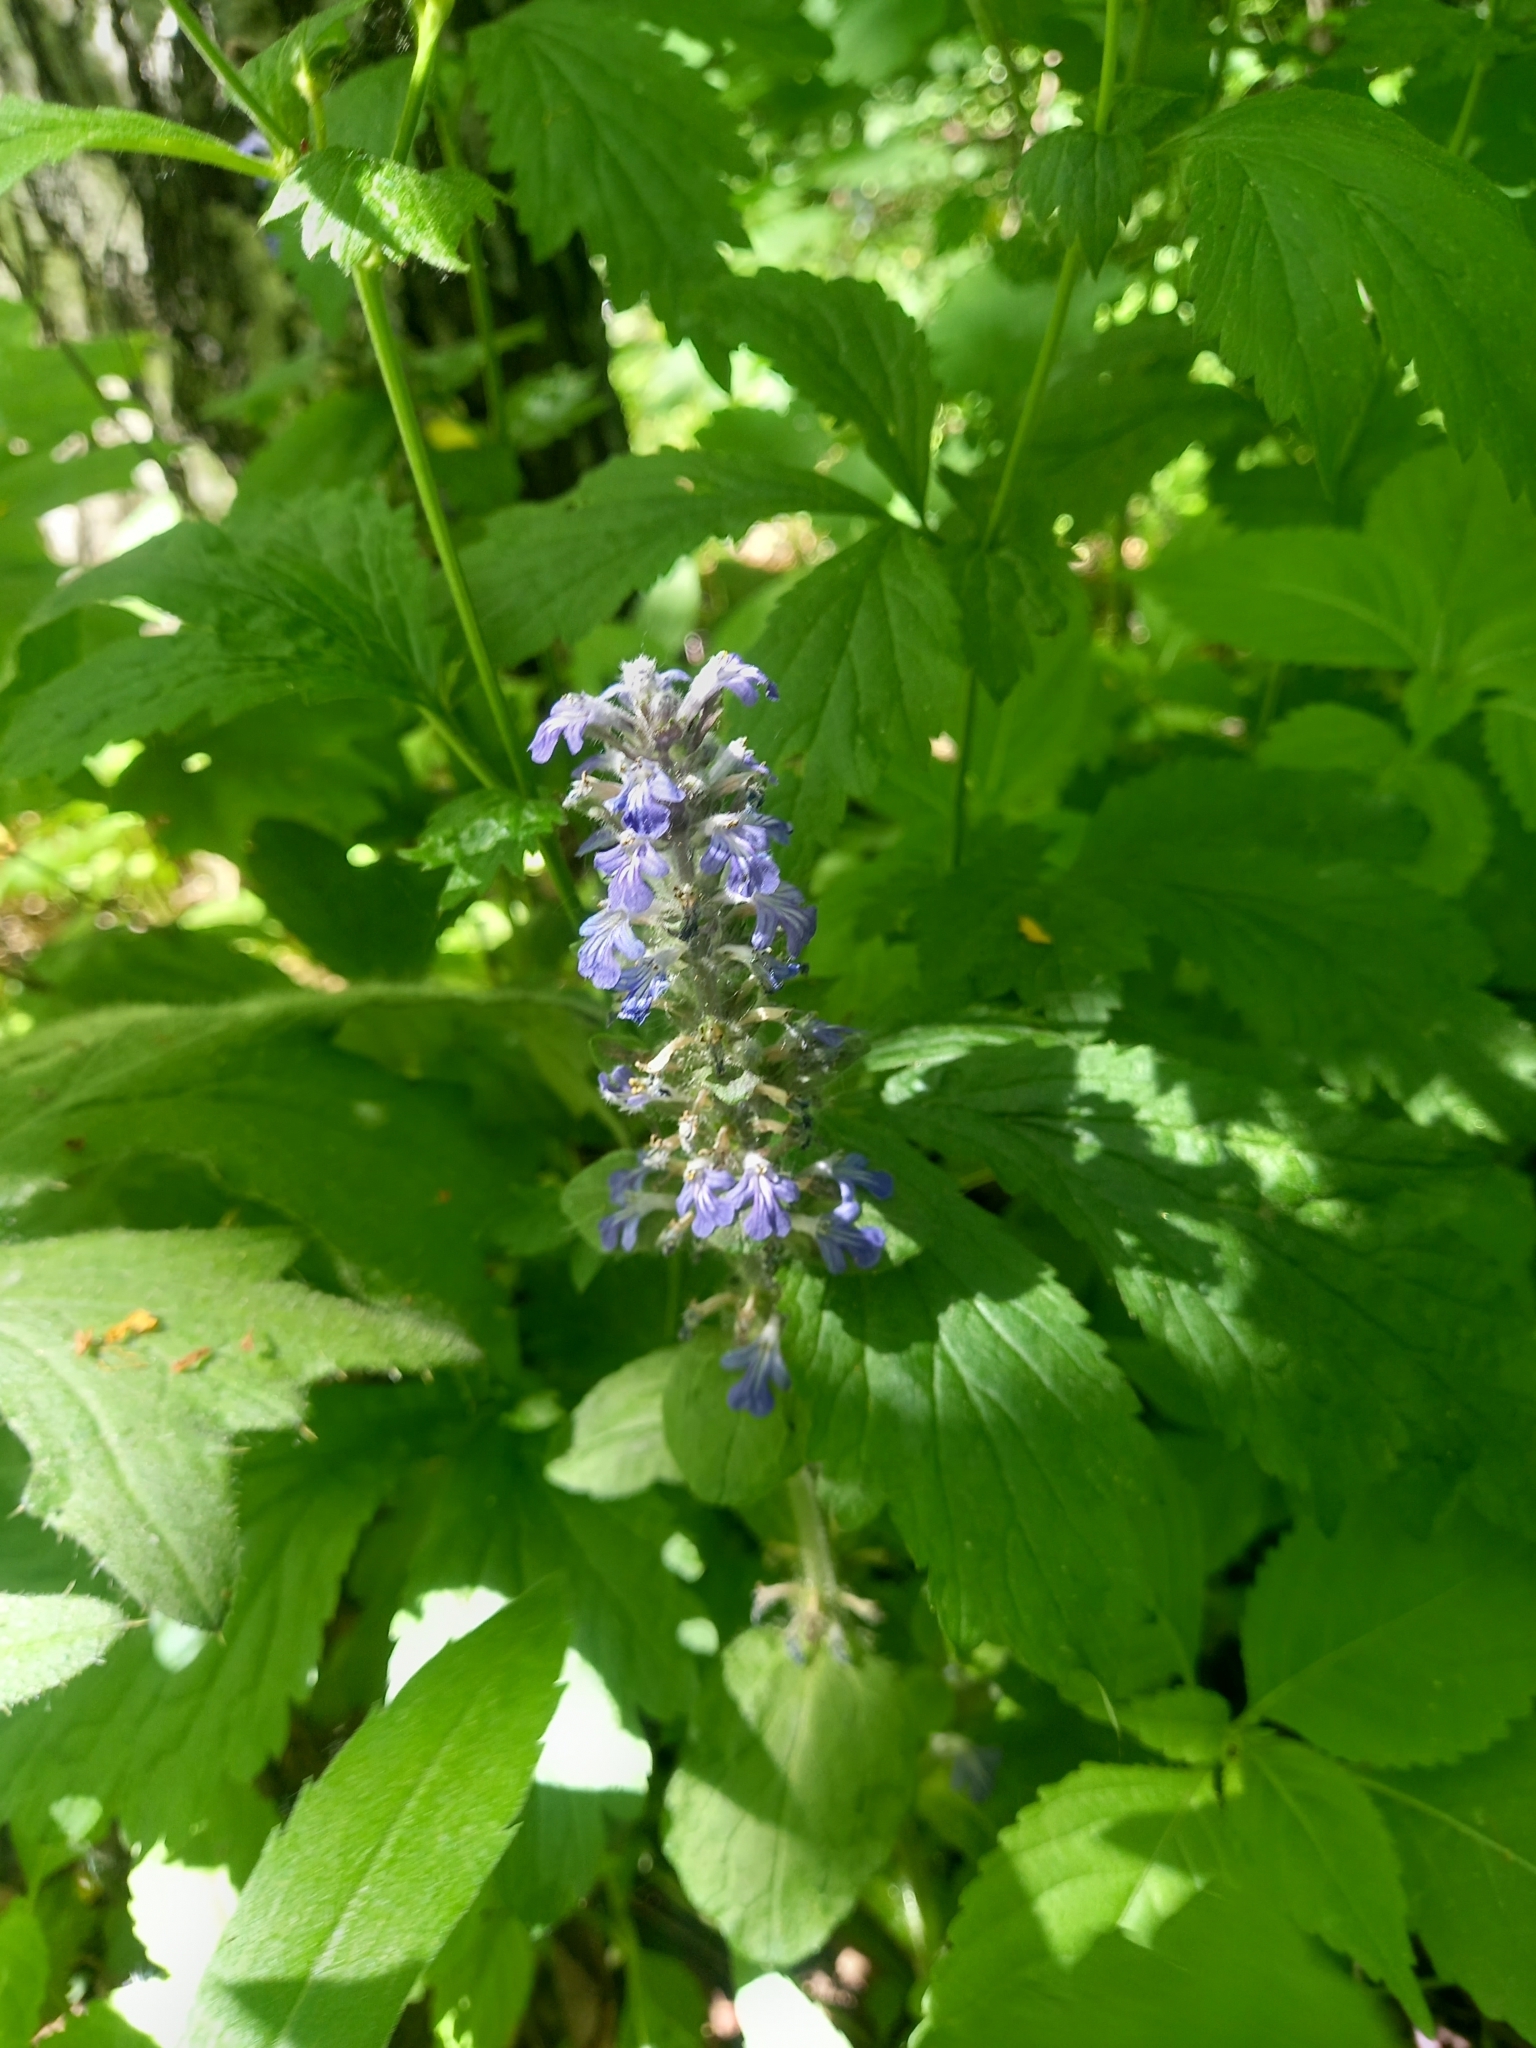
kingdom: Plantae
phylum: Tracheophyta
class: Magnoliopsida
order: Lamiales
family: Lamiaceae
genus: Ajuga
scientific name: Ajuga reptans
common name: Bugle
